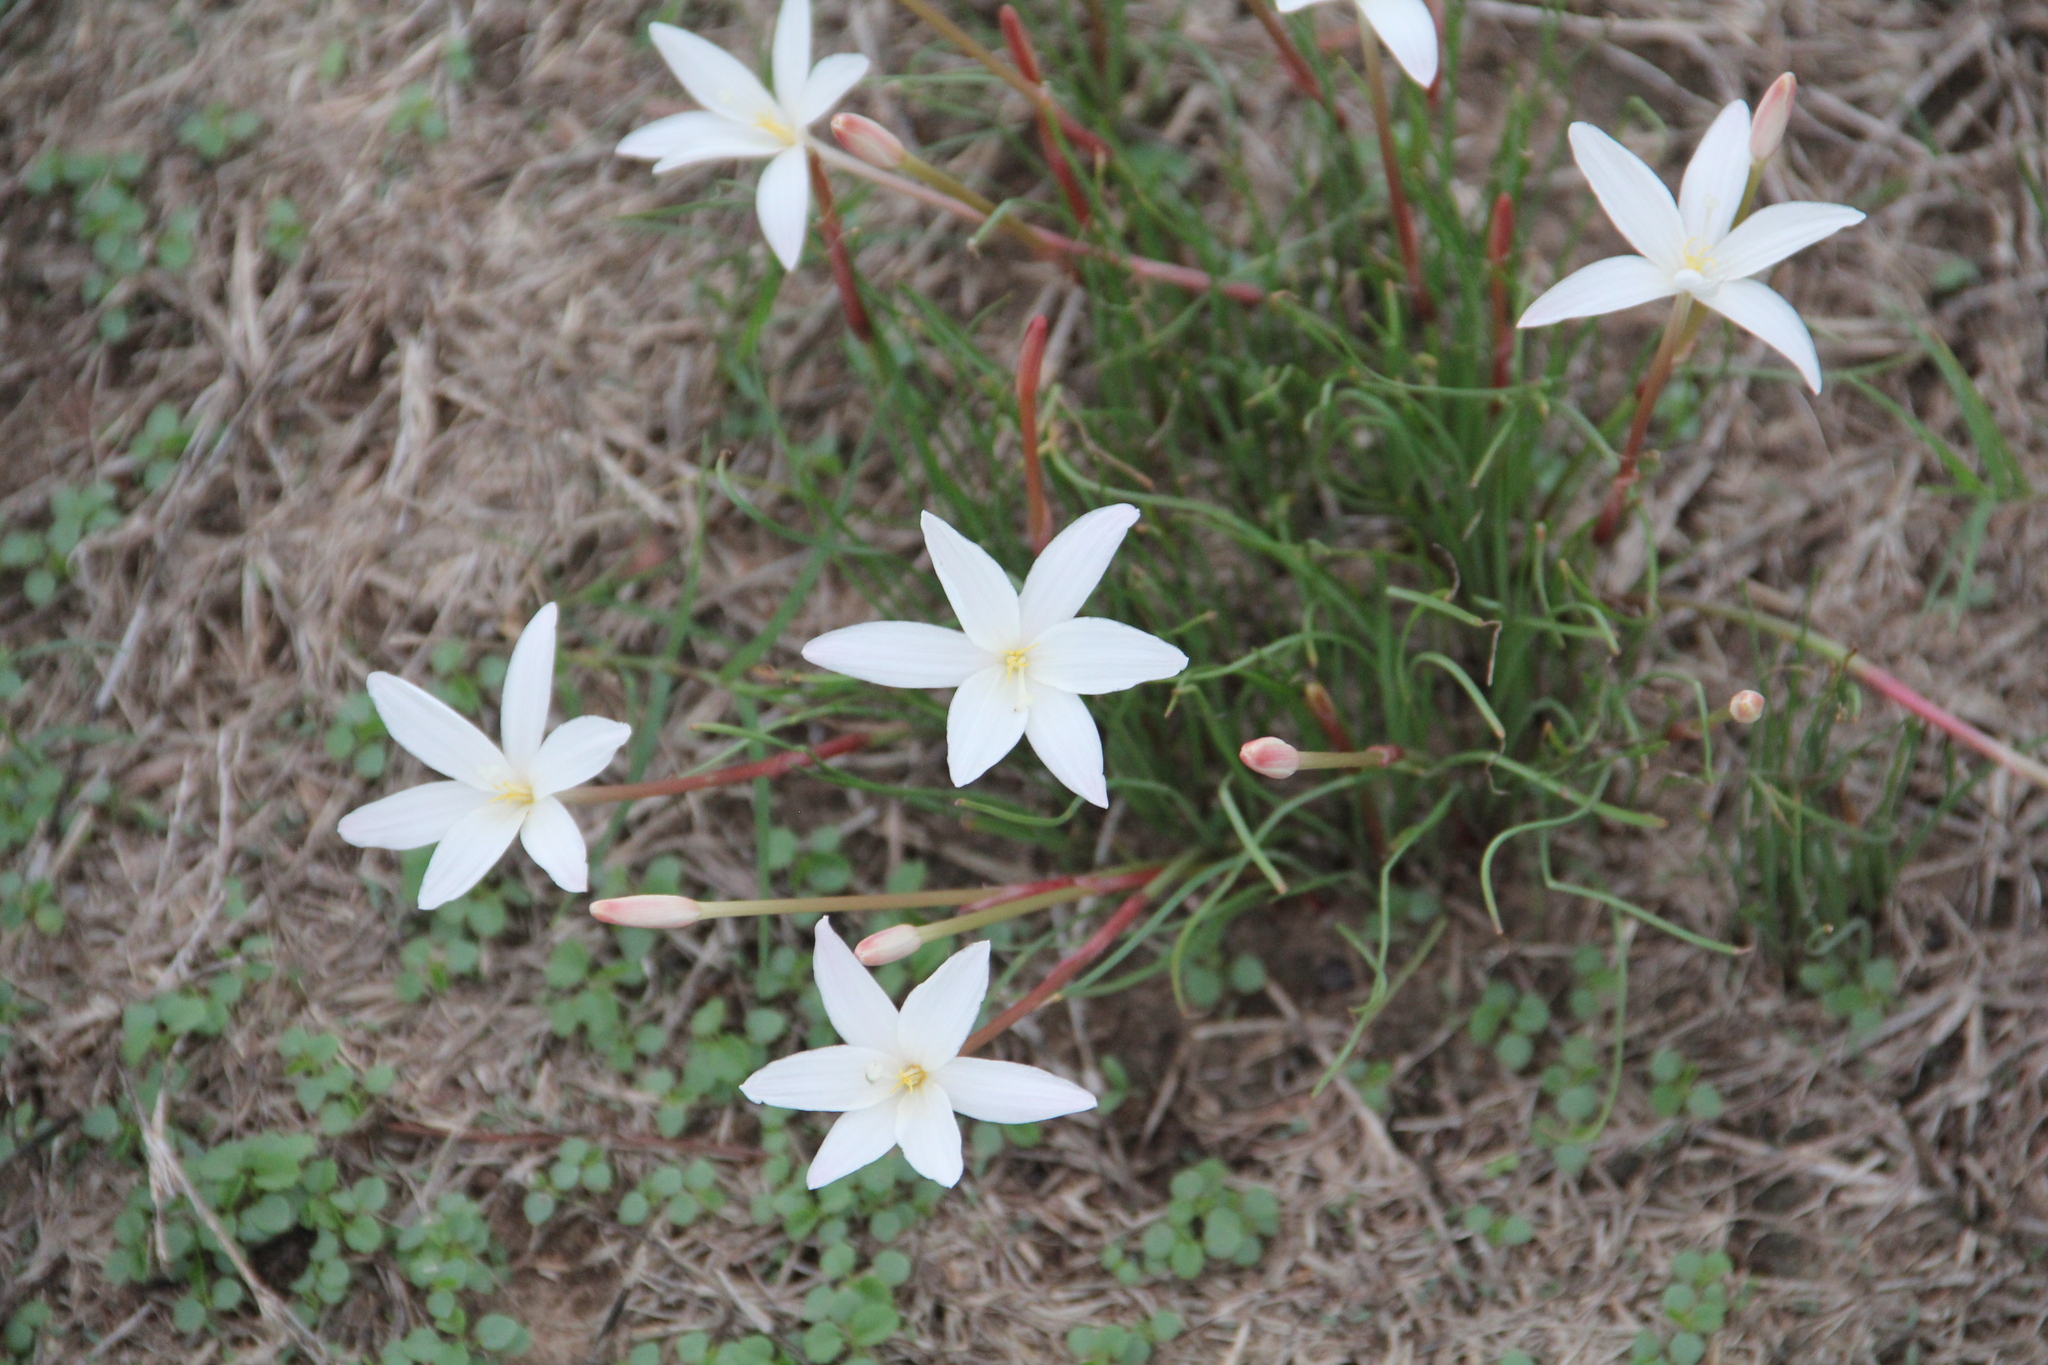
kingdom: Plantae
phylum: Tracheophyta
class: Liliopsida
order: Asparagales
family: Amaryllidaceae
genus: Zephyranthes
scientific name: Zephyranthes traubii
